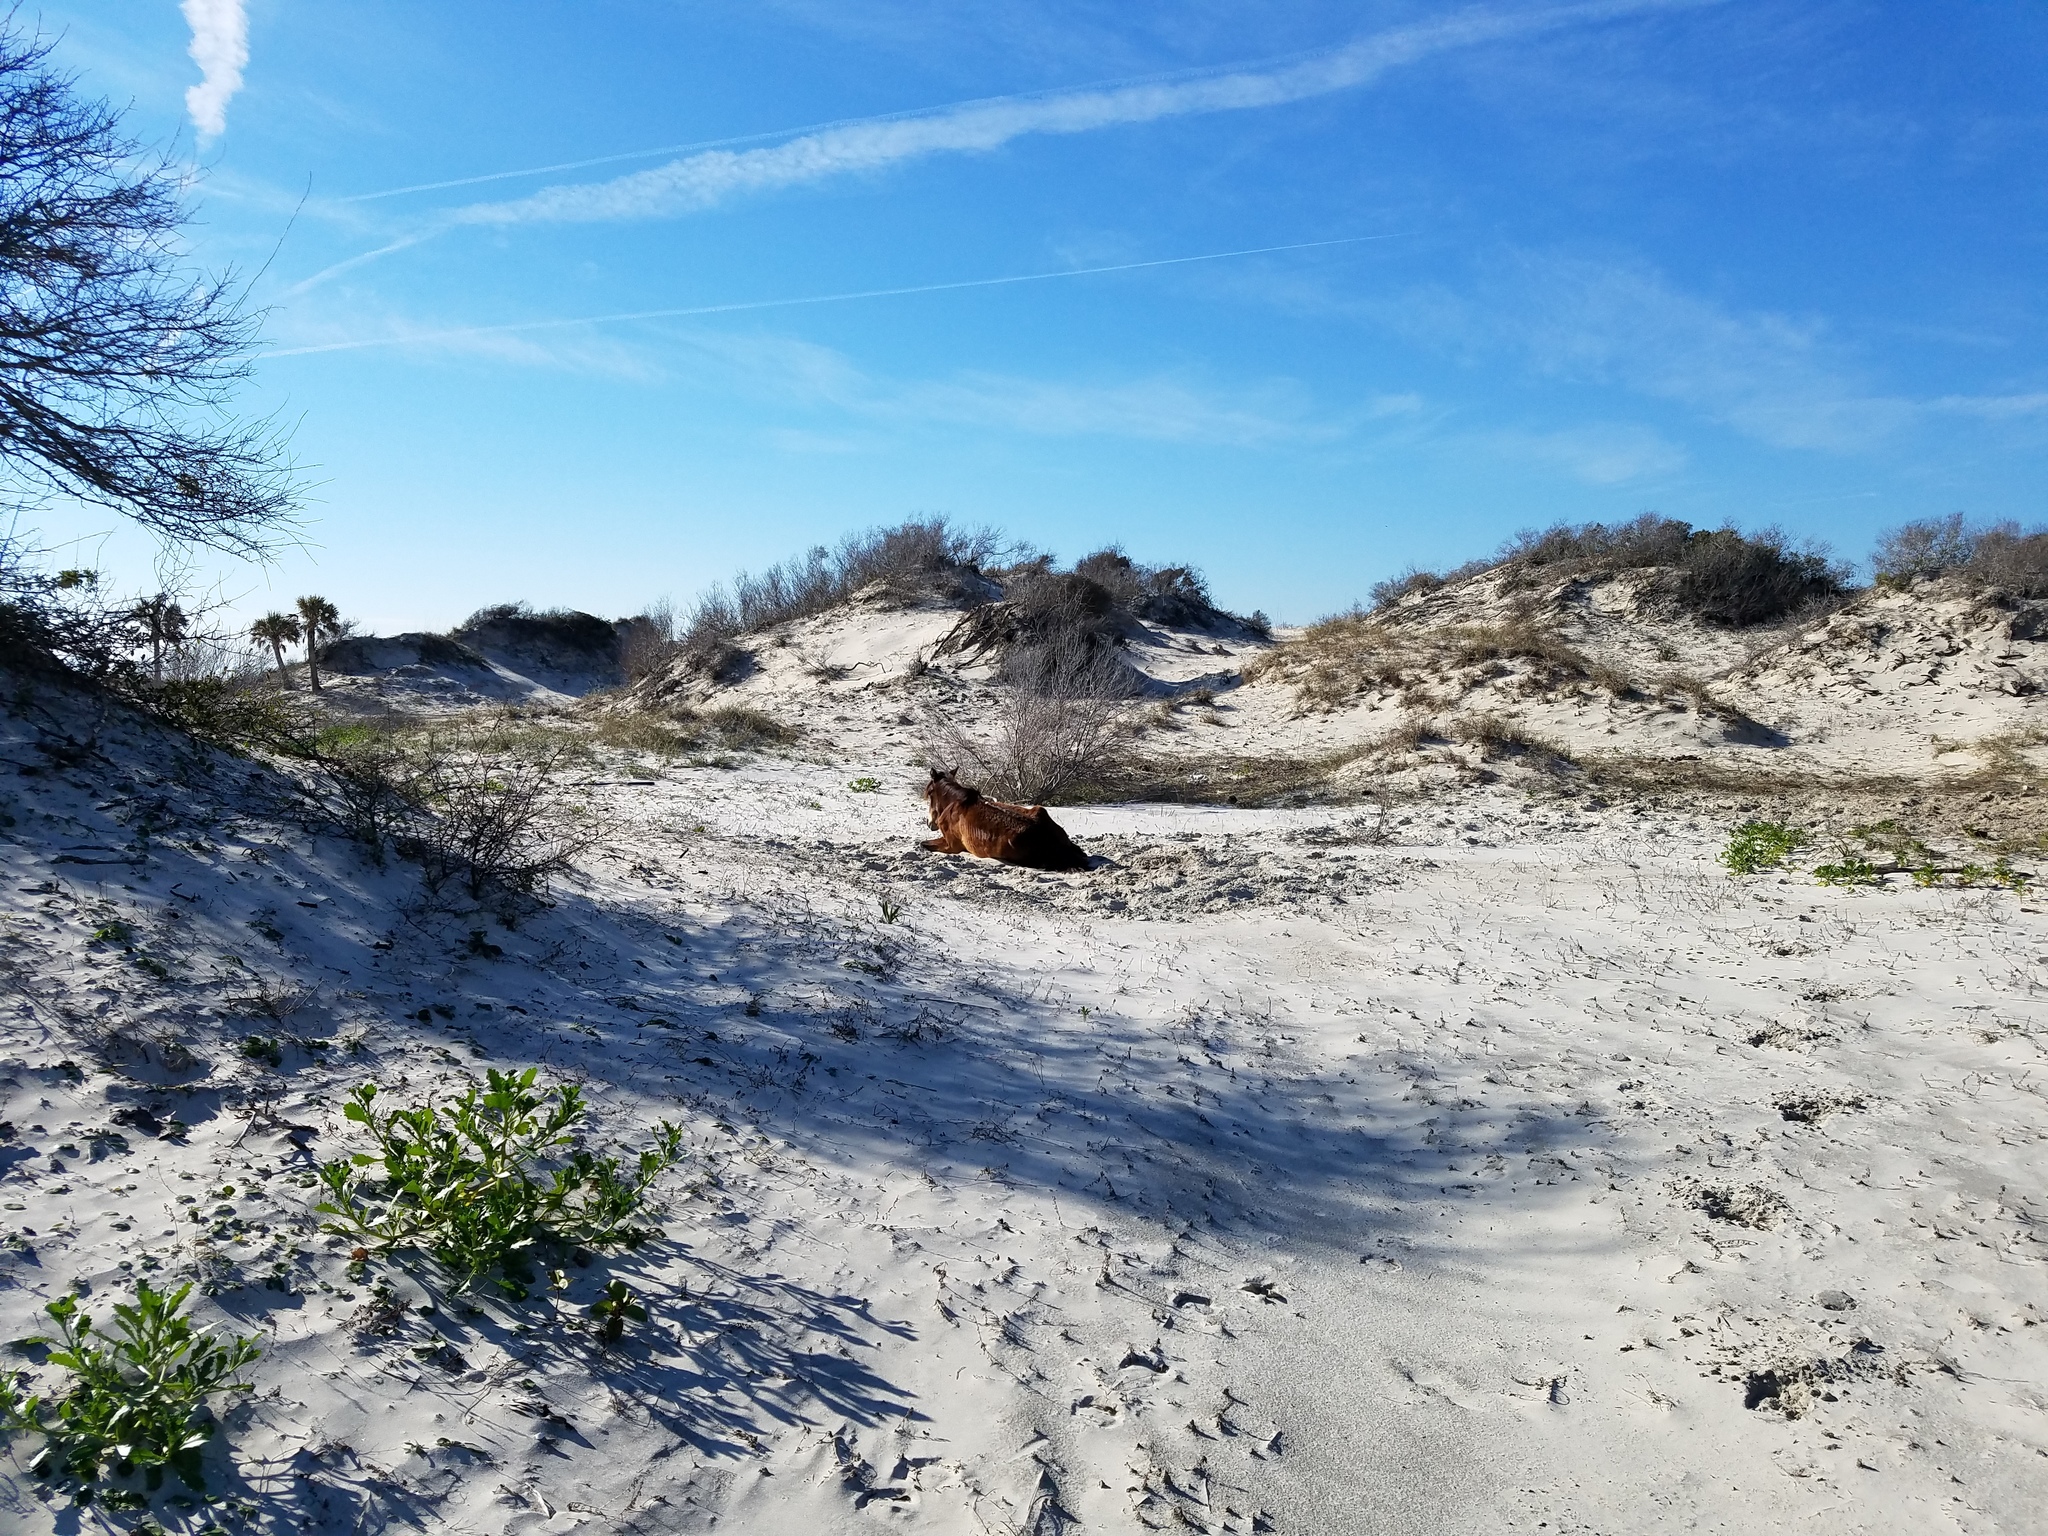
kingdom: Animalia
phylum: Chordata
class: Mammalia
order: Perissodactyla
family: Equidae
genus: Equus
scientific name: Equus caballus
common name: Horse
